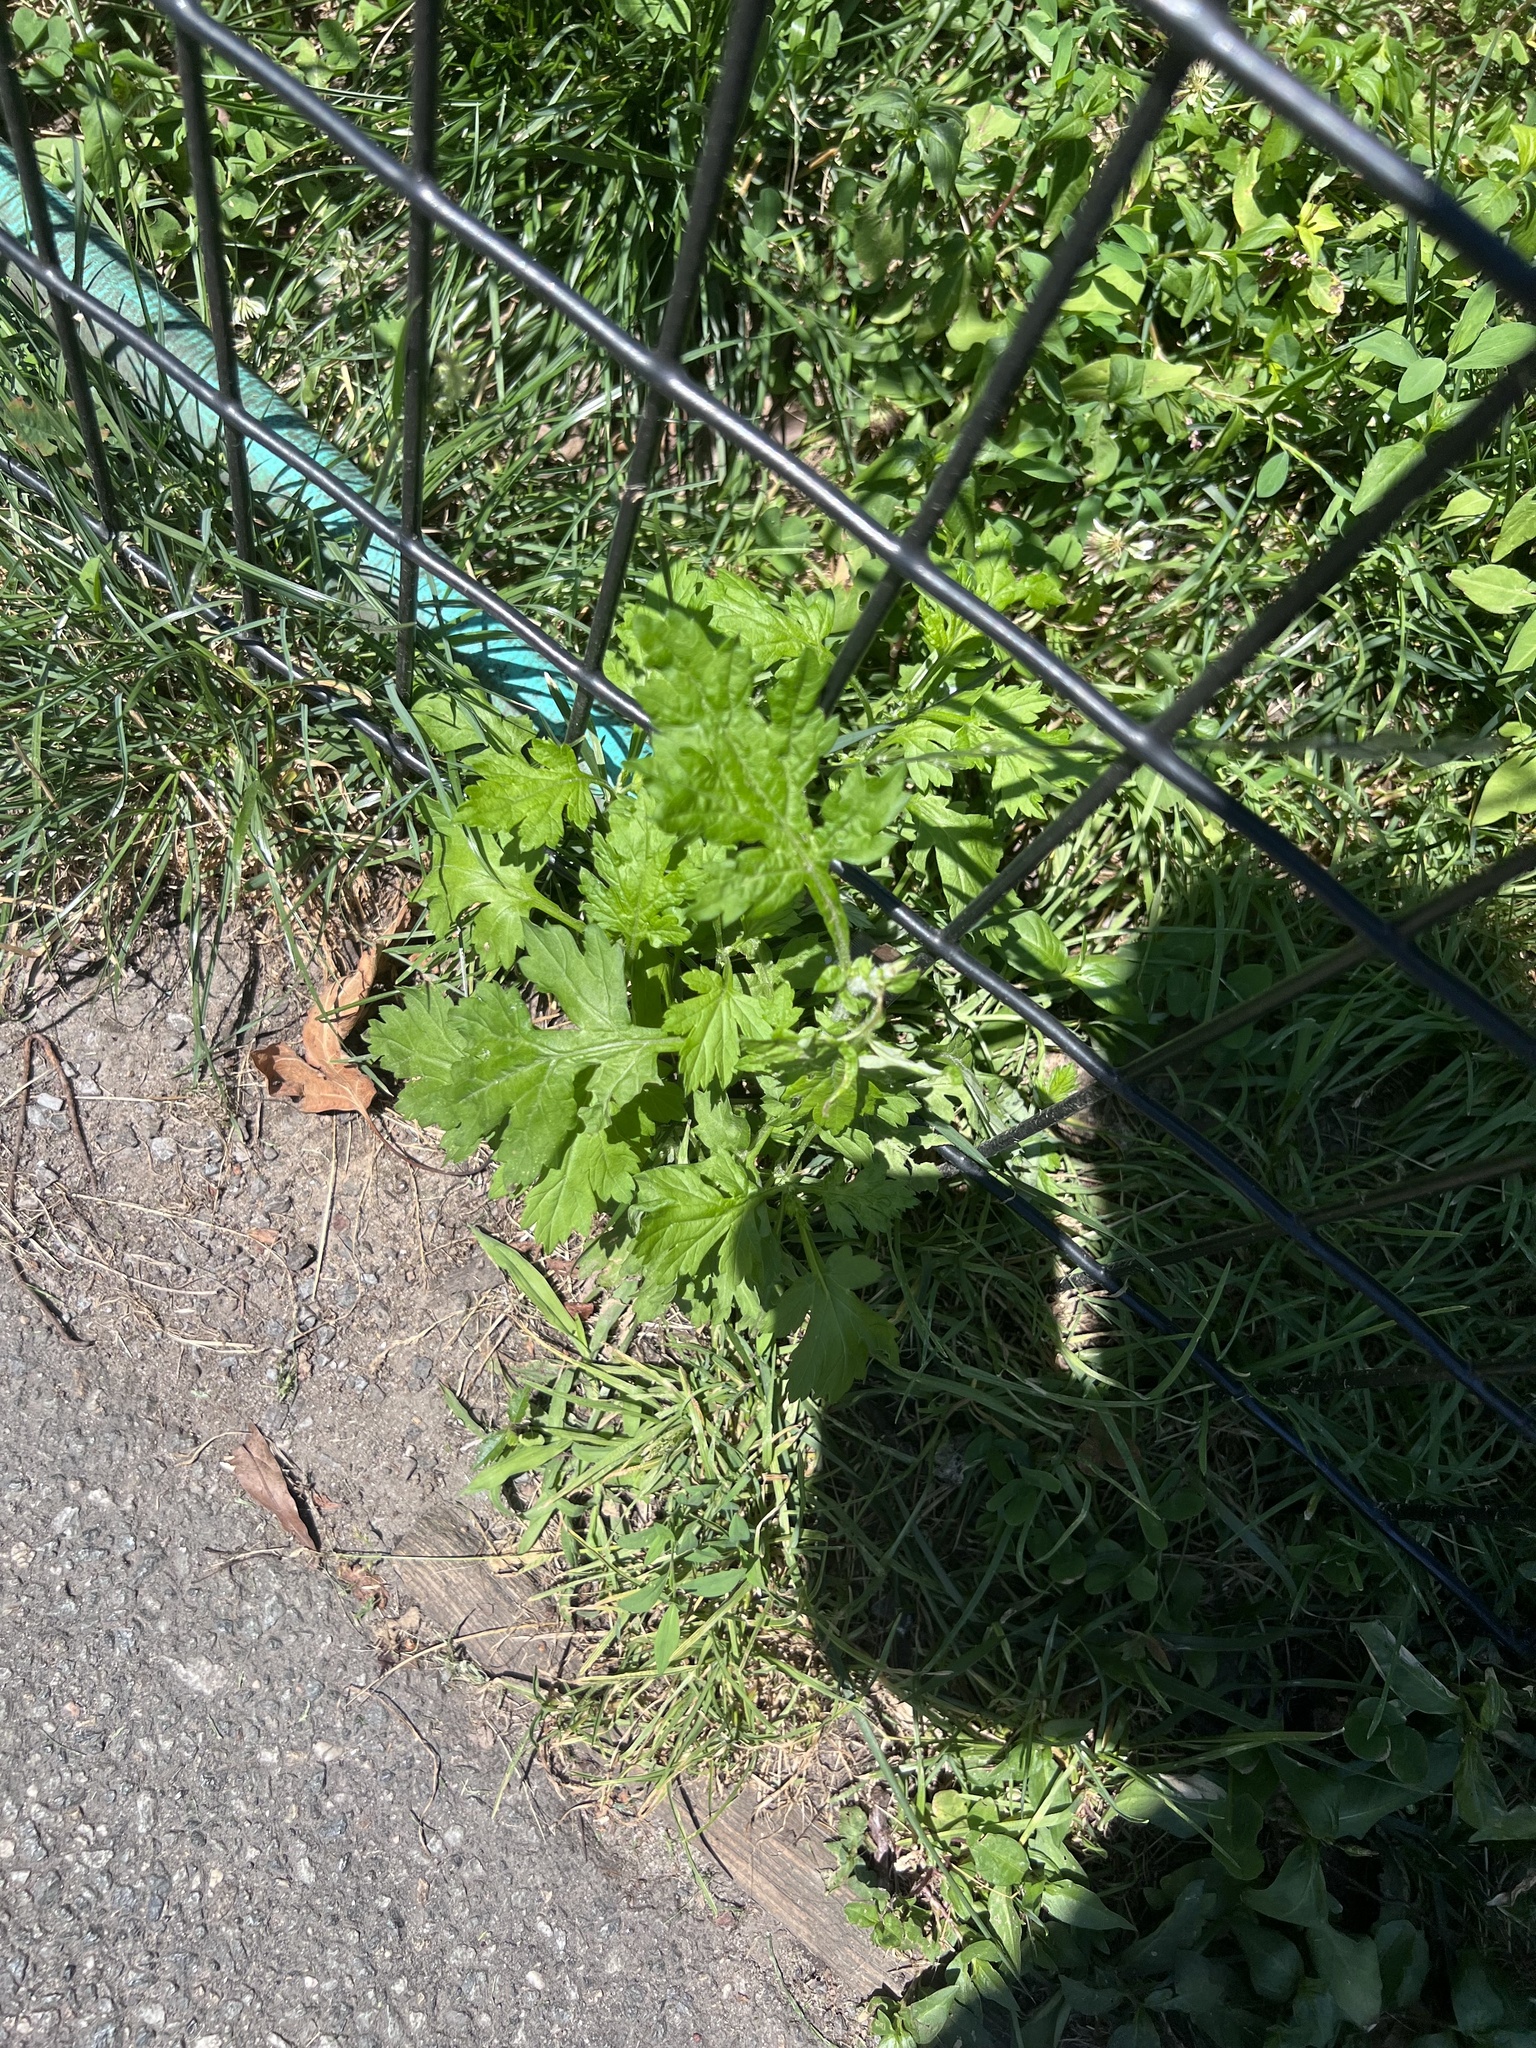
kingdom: Plantae
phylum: Tracheophyta
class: Magnoliopsida
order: Asterales
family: Asteraceae
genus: Artemisia
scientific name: Artemisia vulgaris
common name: Mugwort
